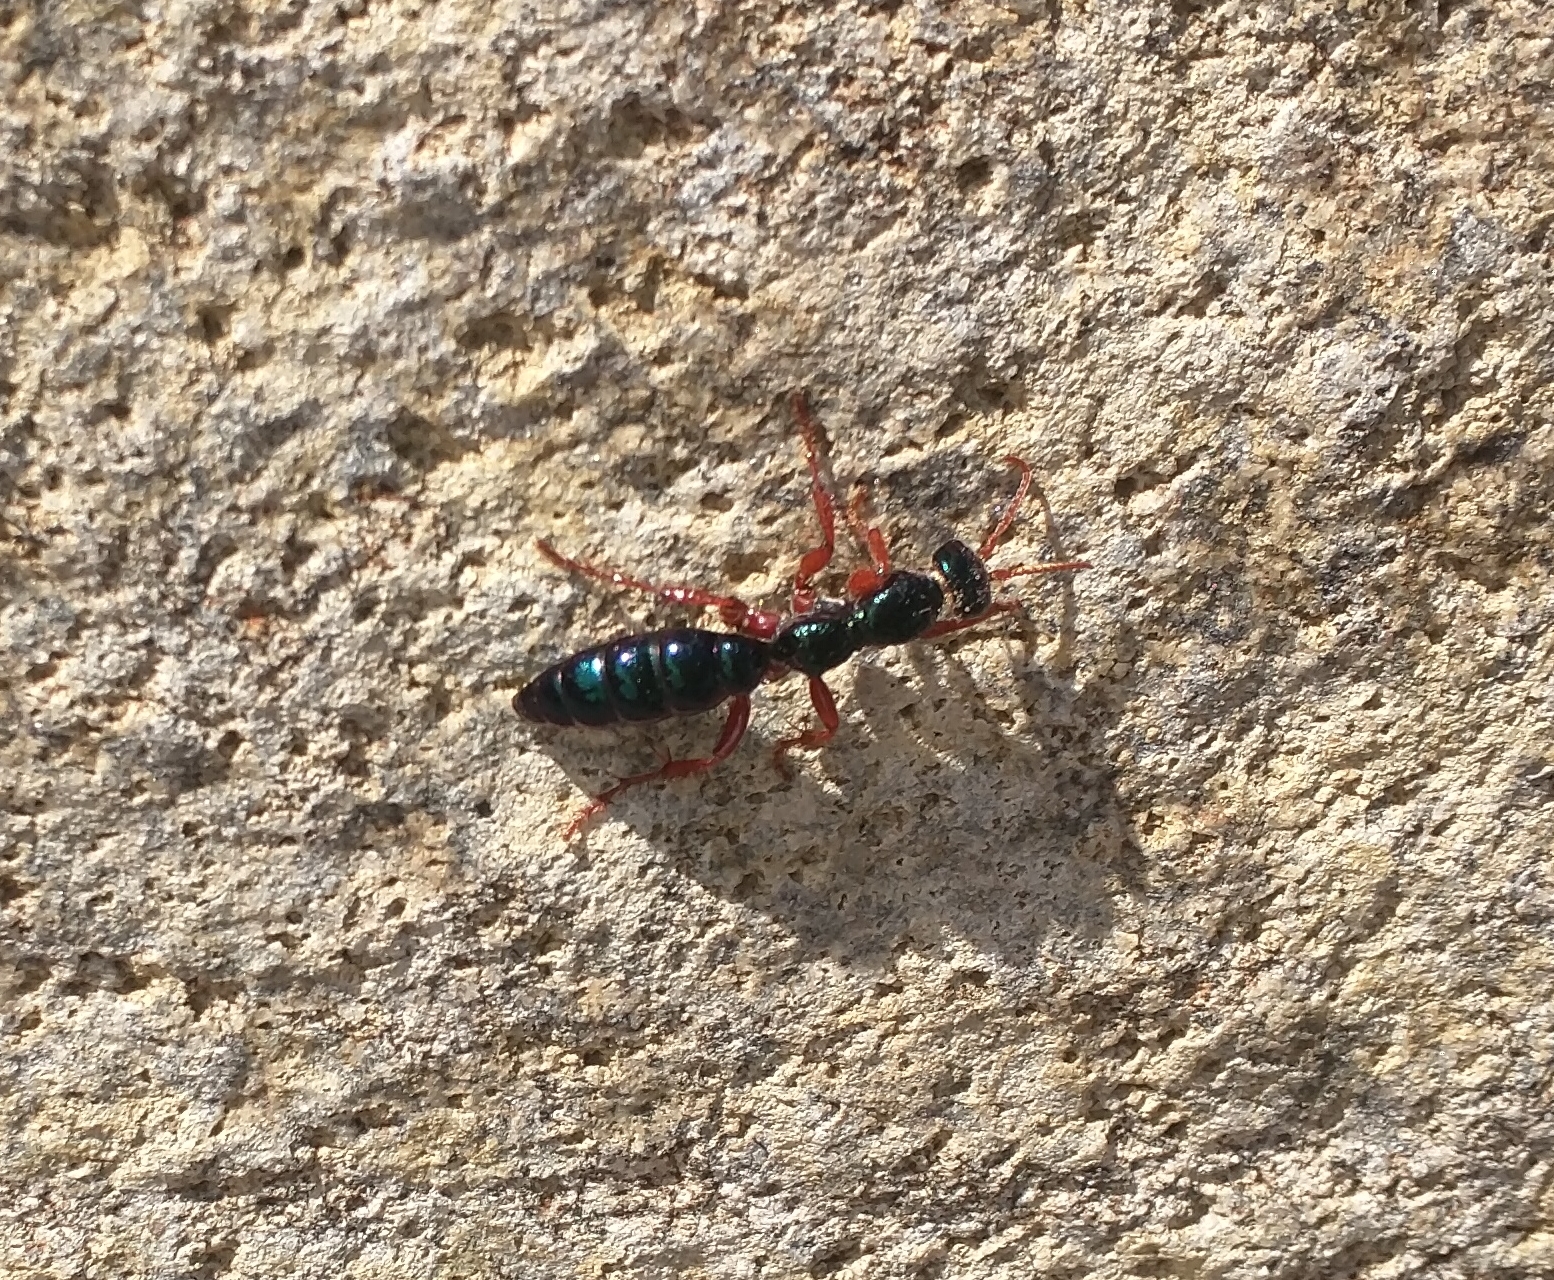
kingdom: Animalia
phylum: Arthropoda
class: Insecta
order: Hymenoptera
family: Tiphiidae
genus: Diamma
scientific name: Diamma
